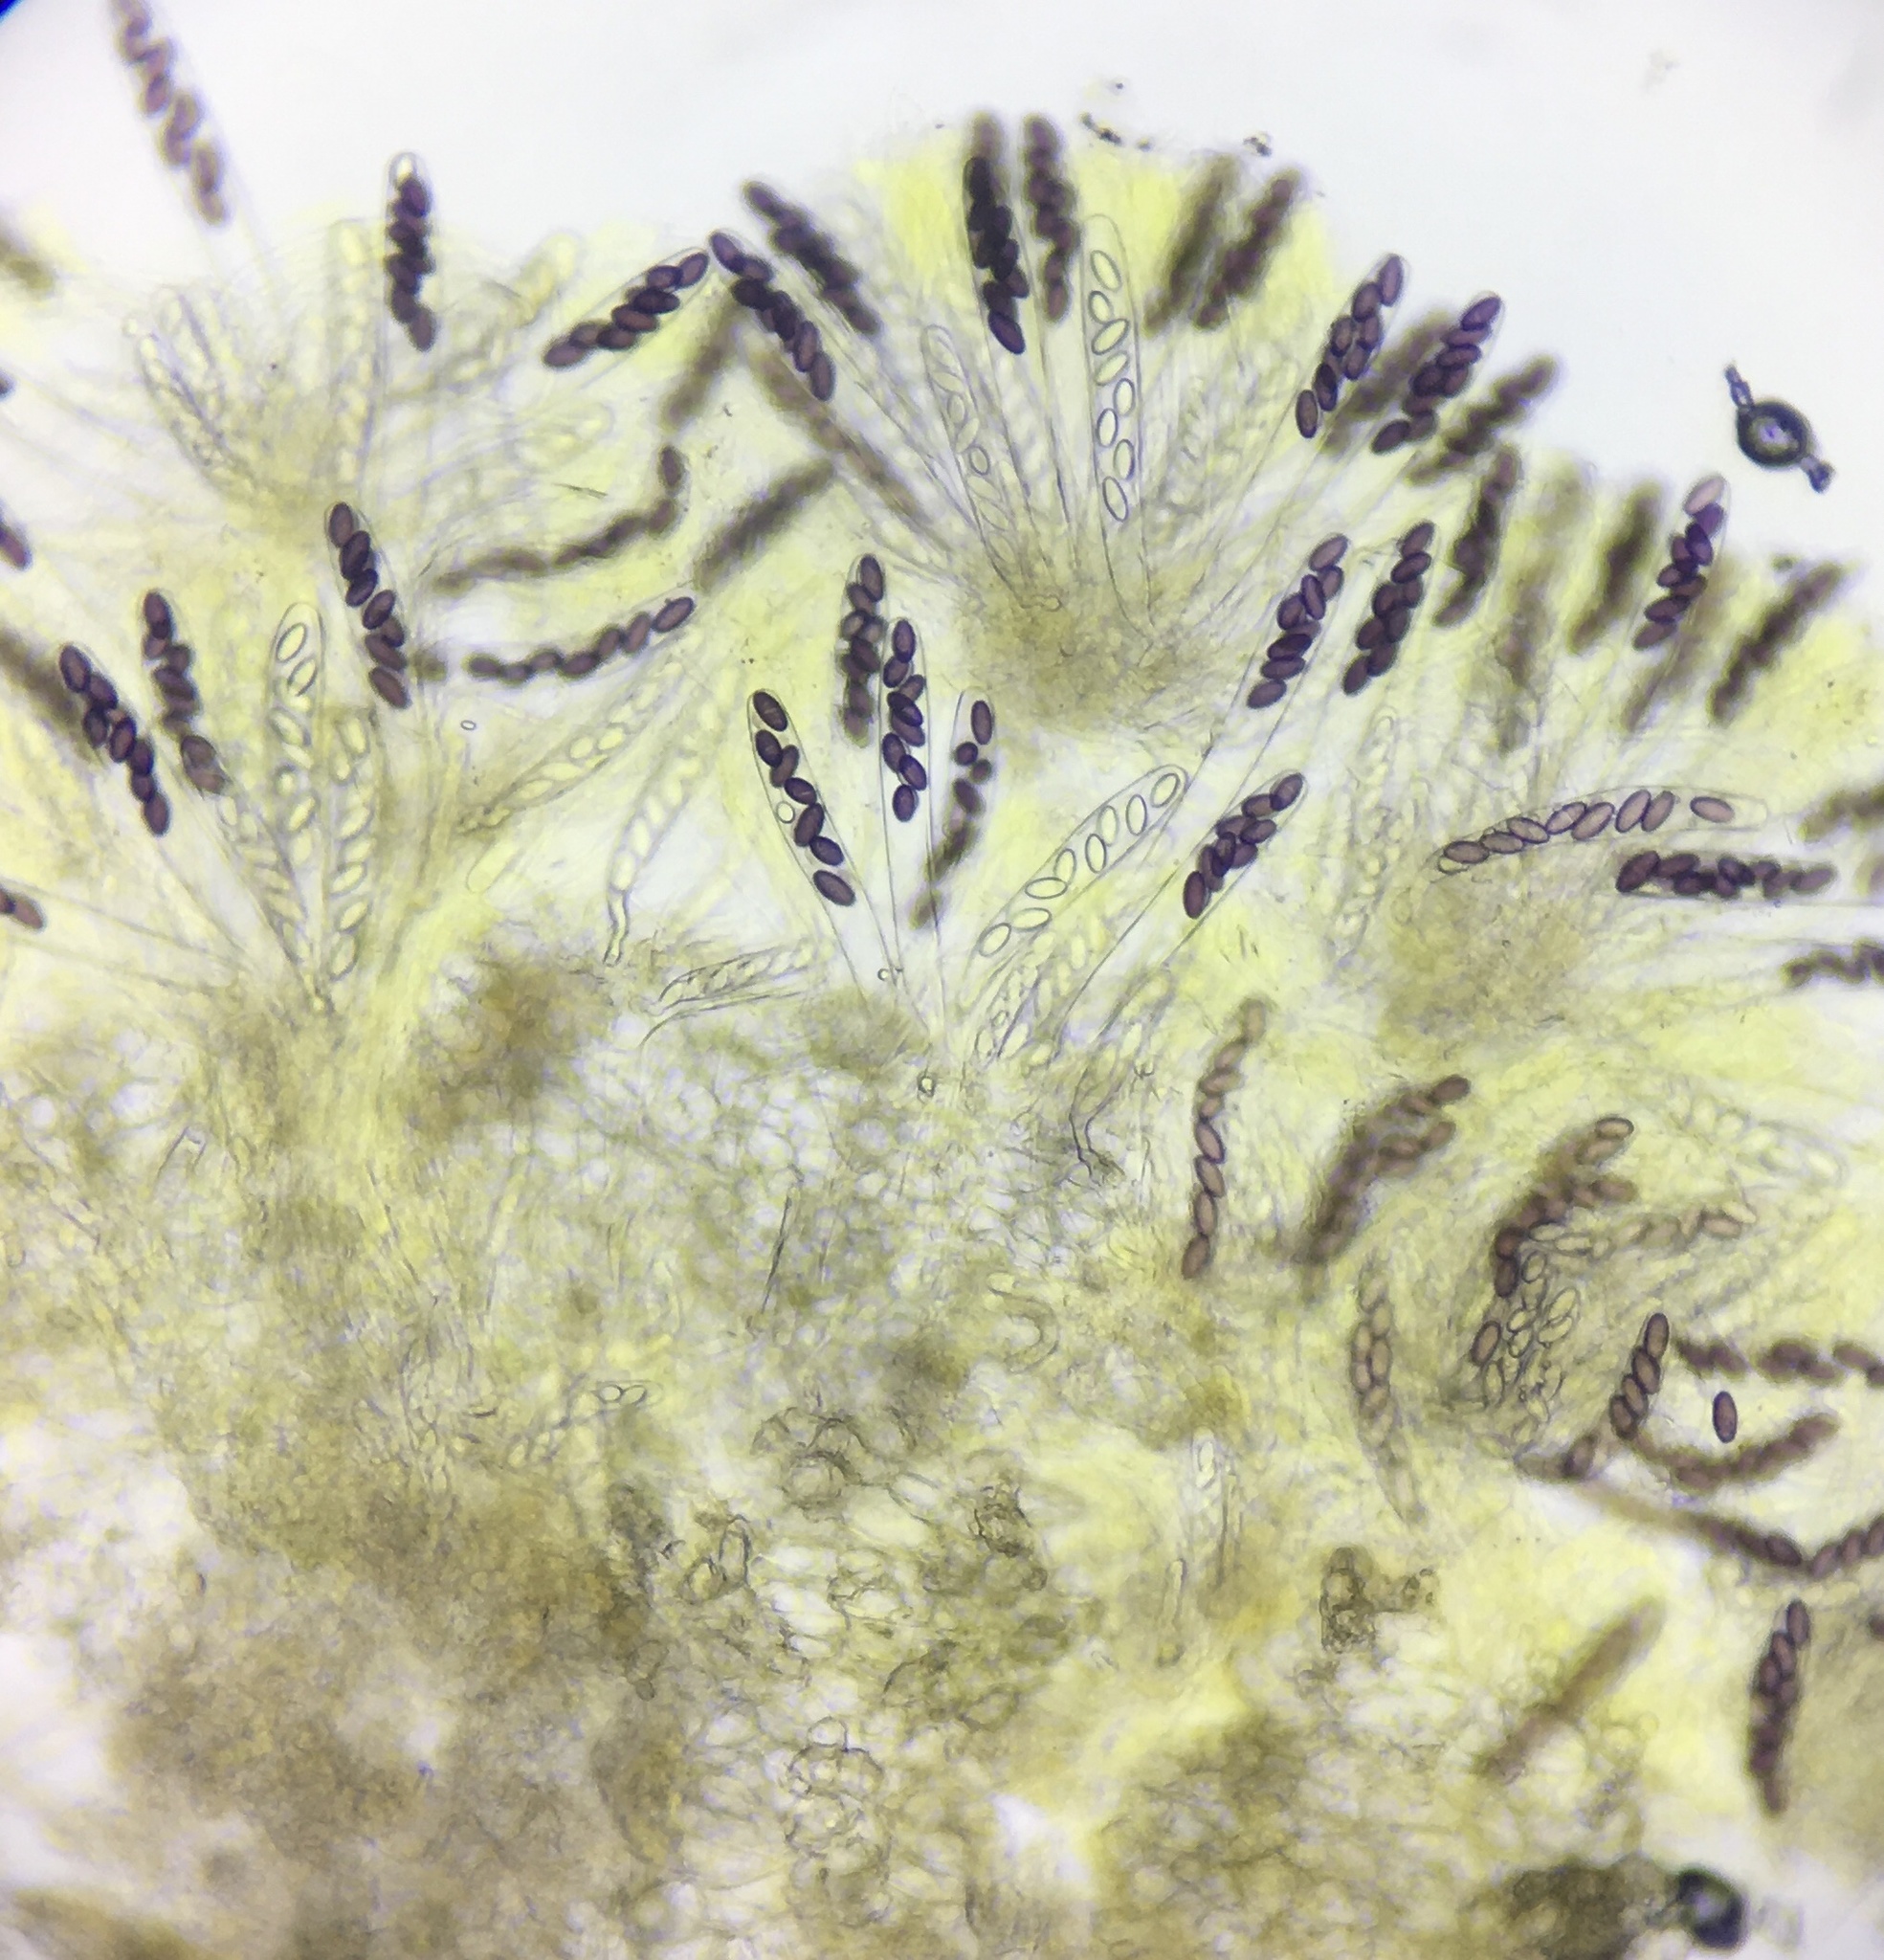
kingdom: Fungi
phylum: Ascomycota
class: Pezizomycetes
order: Pezizales
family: Ascobolaceae
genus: Ascobolus
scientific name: Ascobolus michaudii
